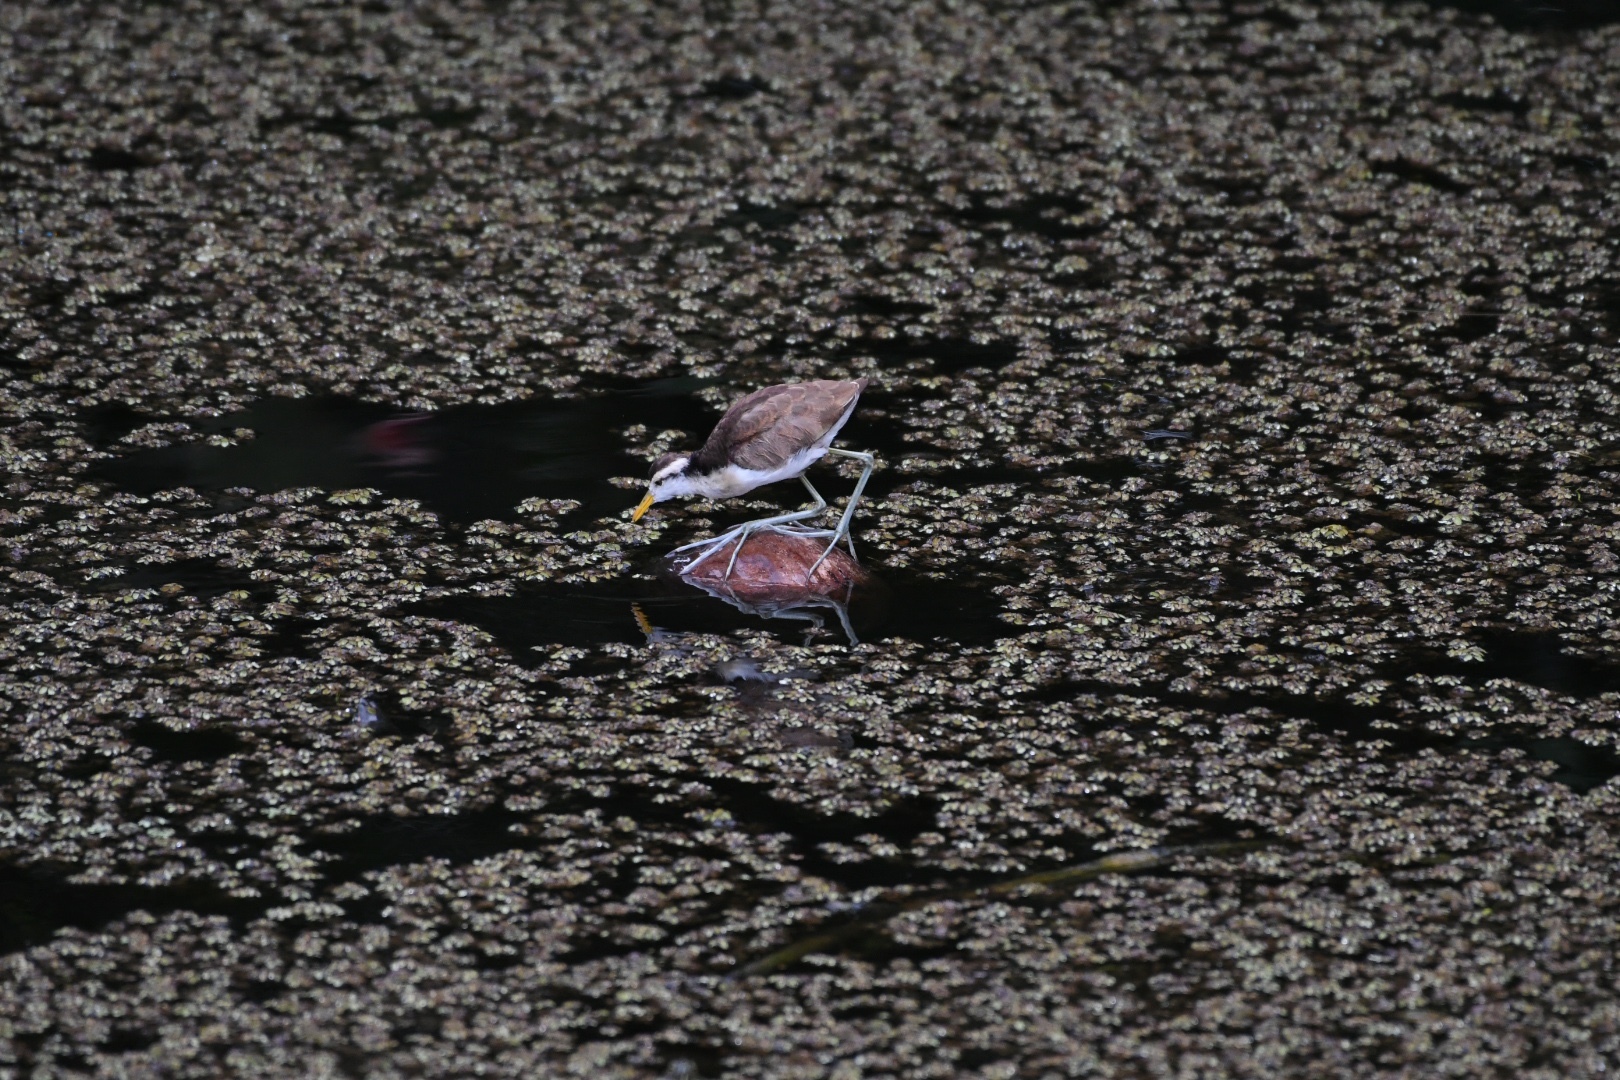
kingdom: Animalia
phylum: Chordata
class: Aves
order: Charadriiformes
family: Jacanidae
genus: Jacana
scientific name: Jacana spinosa
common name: Northern jacana
